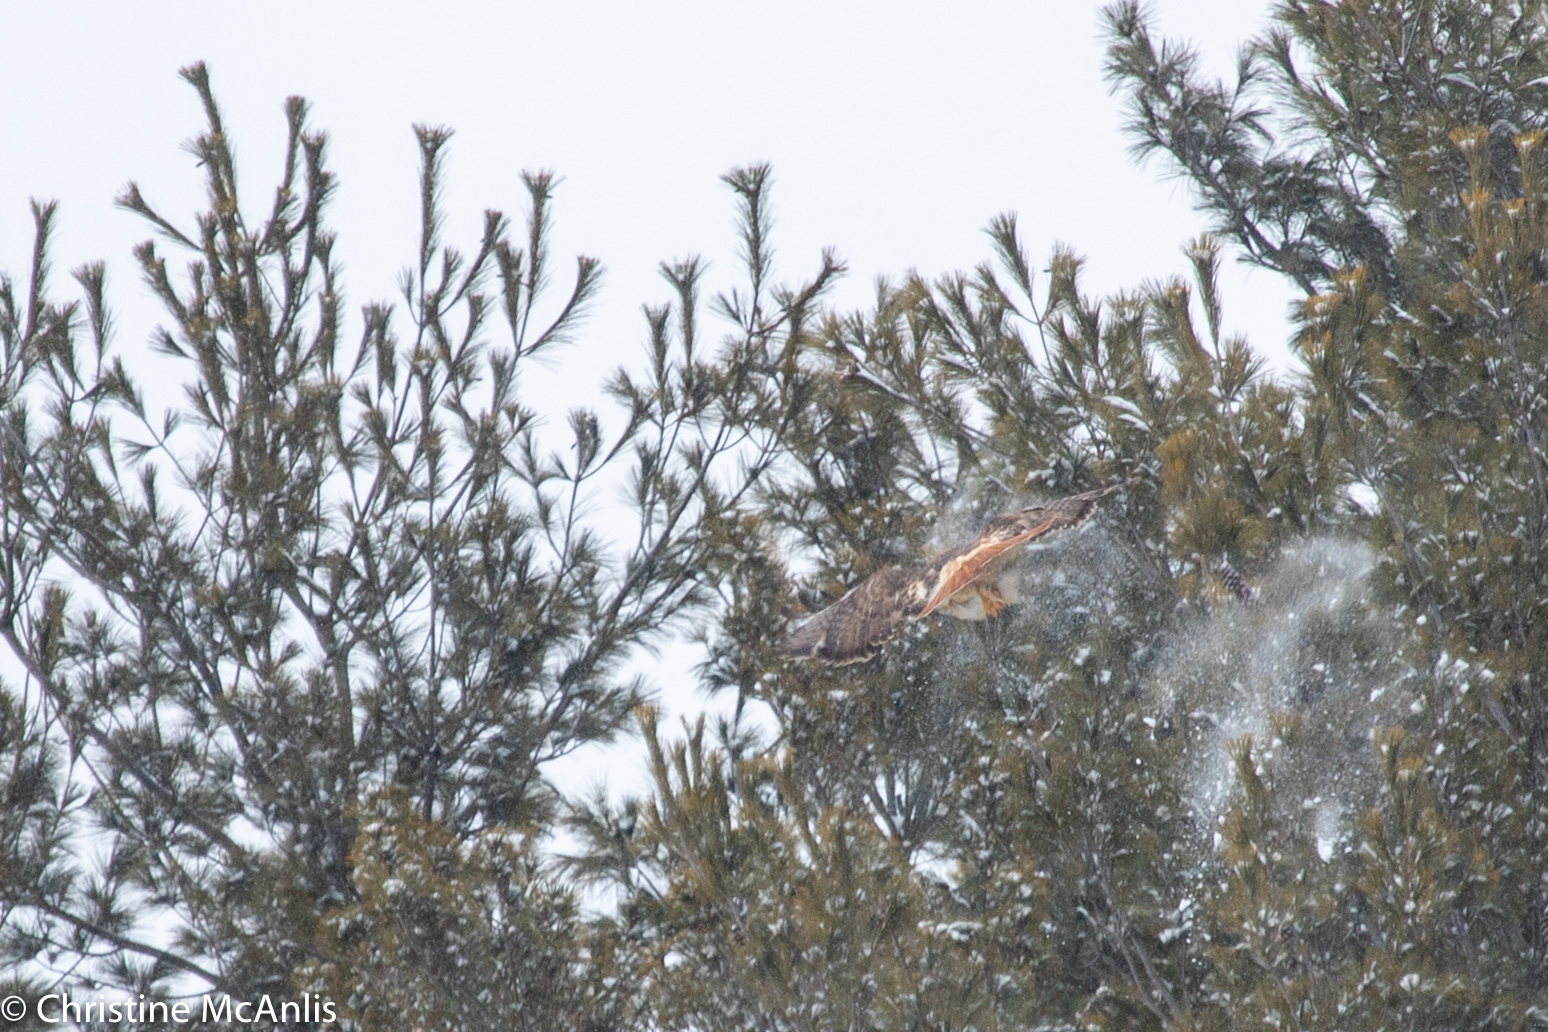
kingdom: Animalia
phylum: Chordata
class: Aves
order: Accipitriformes
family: Accipitridae
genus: Buteo
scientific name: Buteo jamaicensis
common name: Red-tailed hawk
